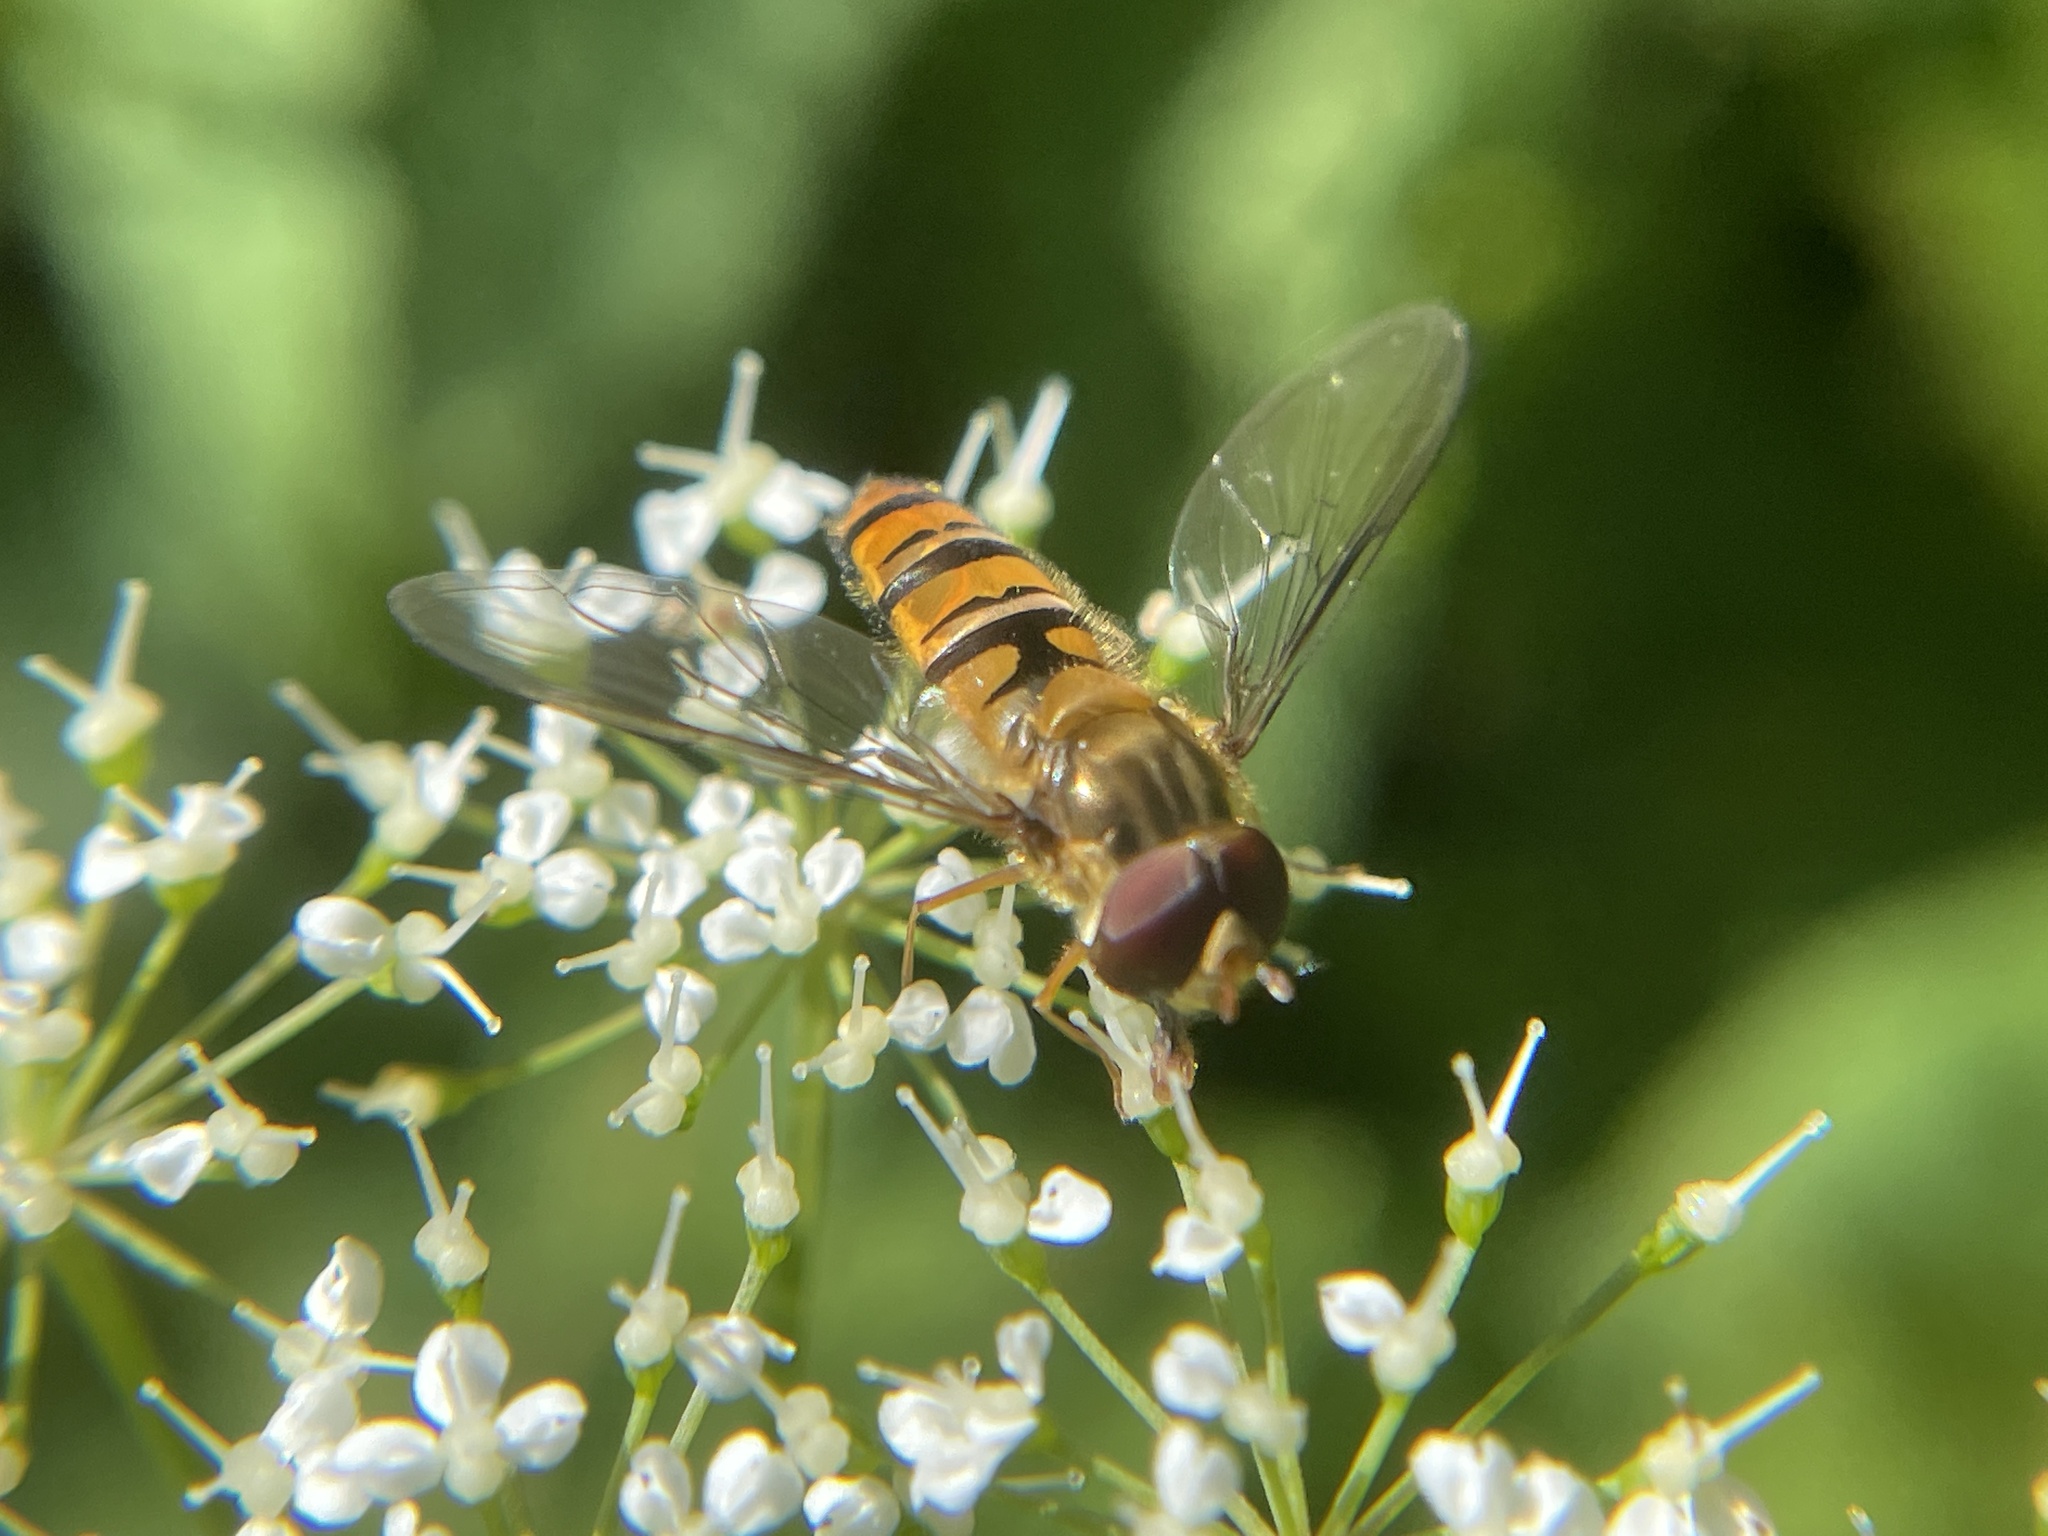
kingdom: Animalia
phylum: Arthropoda
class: Insecta
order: Diptera
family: Syrphidae
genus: Episyrphus
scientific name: Episyrphus balteatus
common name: Marmalade hoverfly
